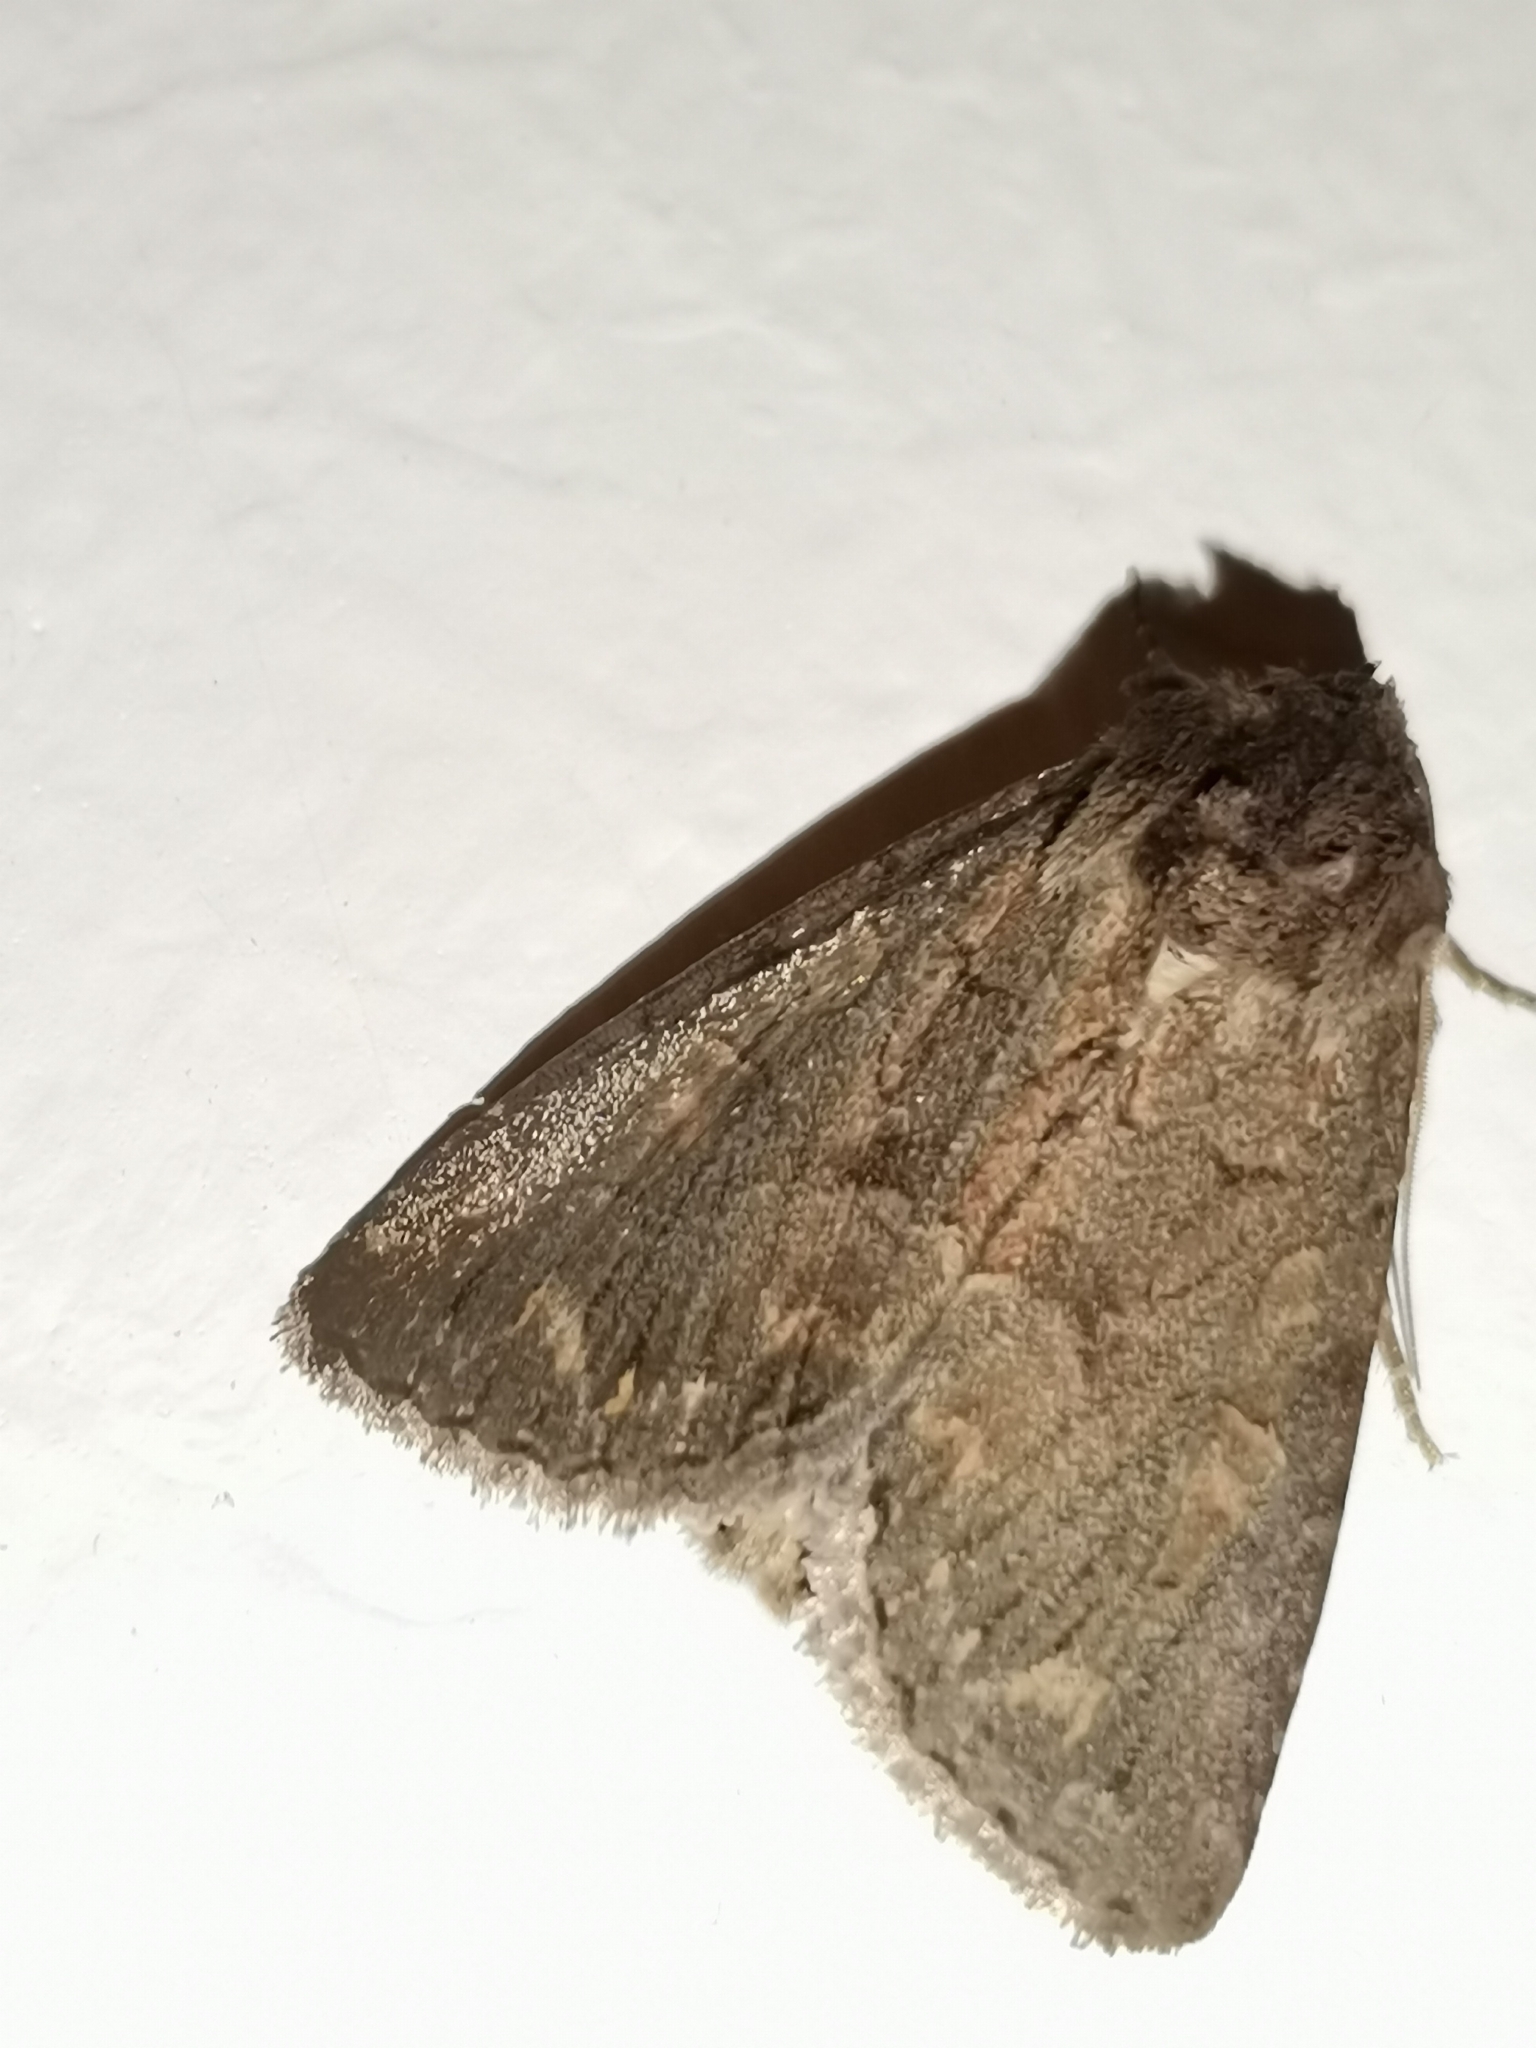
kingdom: Animalia
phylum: Arthropoda
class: Insecta
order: Lepidoptera
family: Noctuidae
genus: Thalpophila
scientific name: Thalpophila matura
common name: Straw underwing
